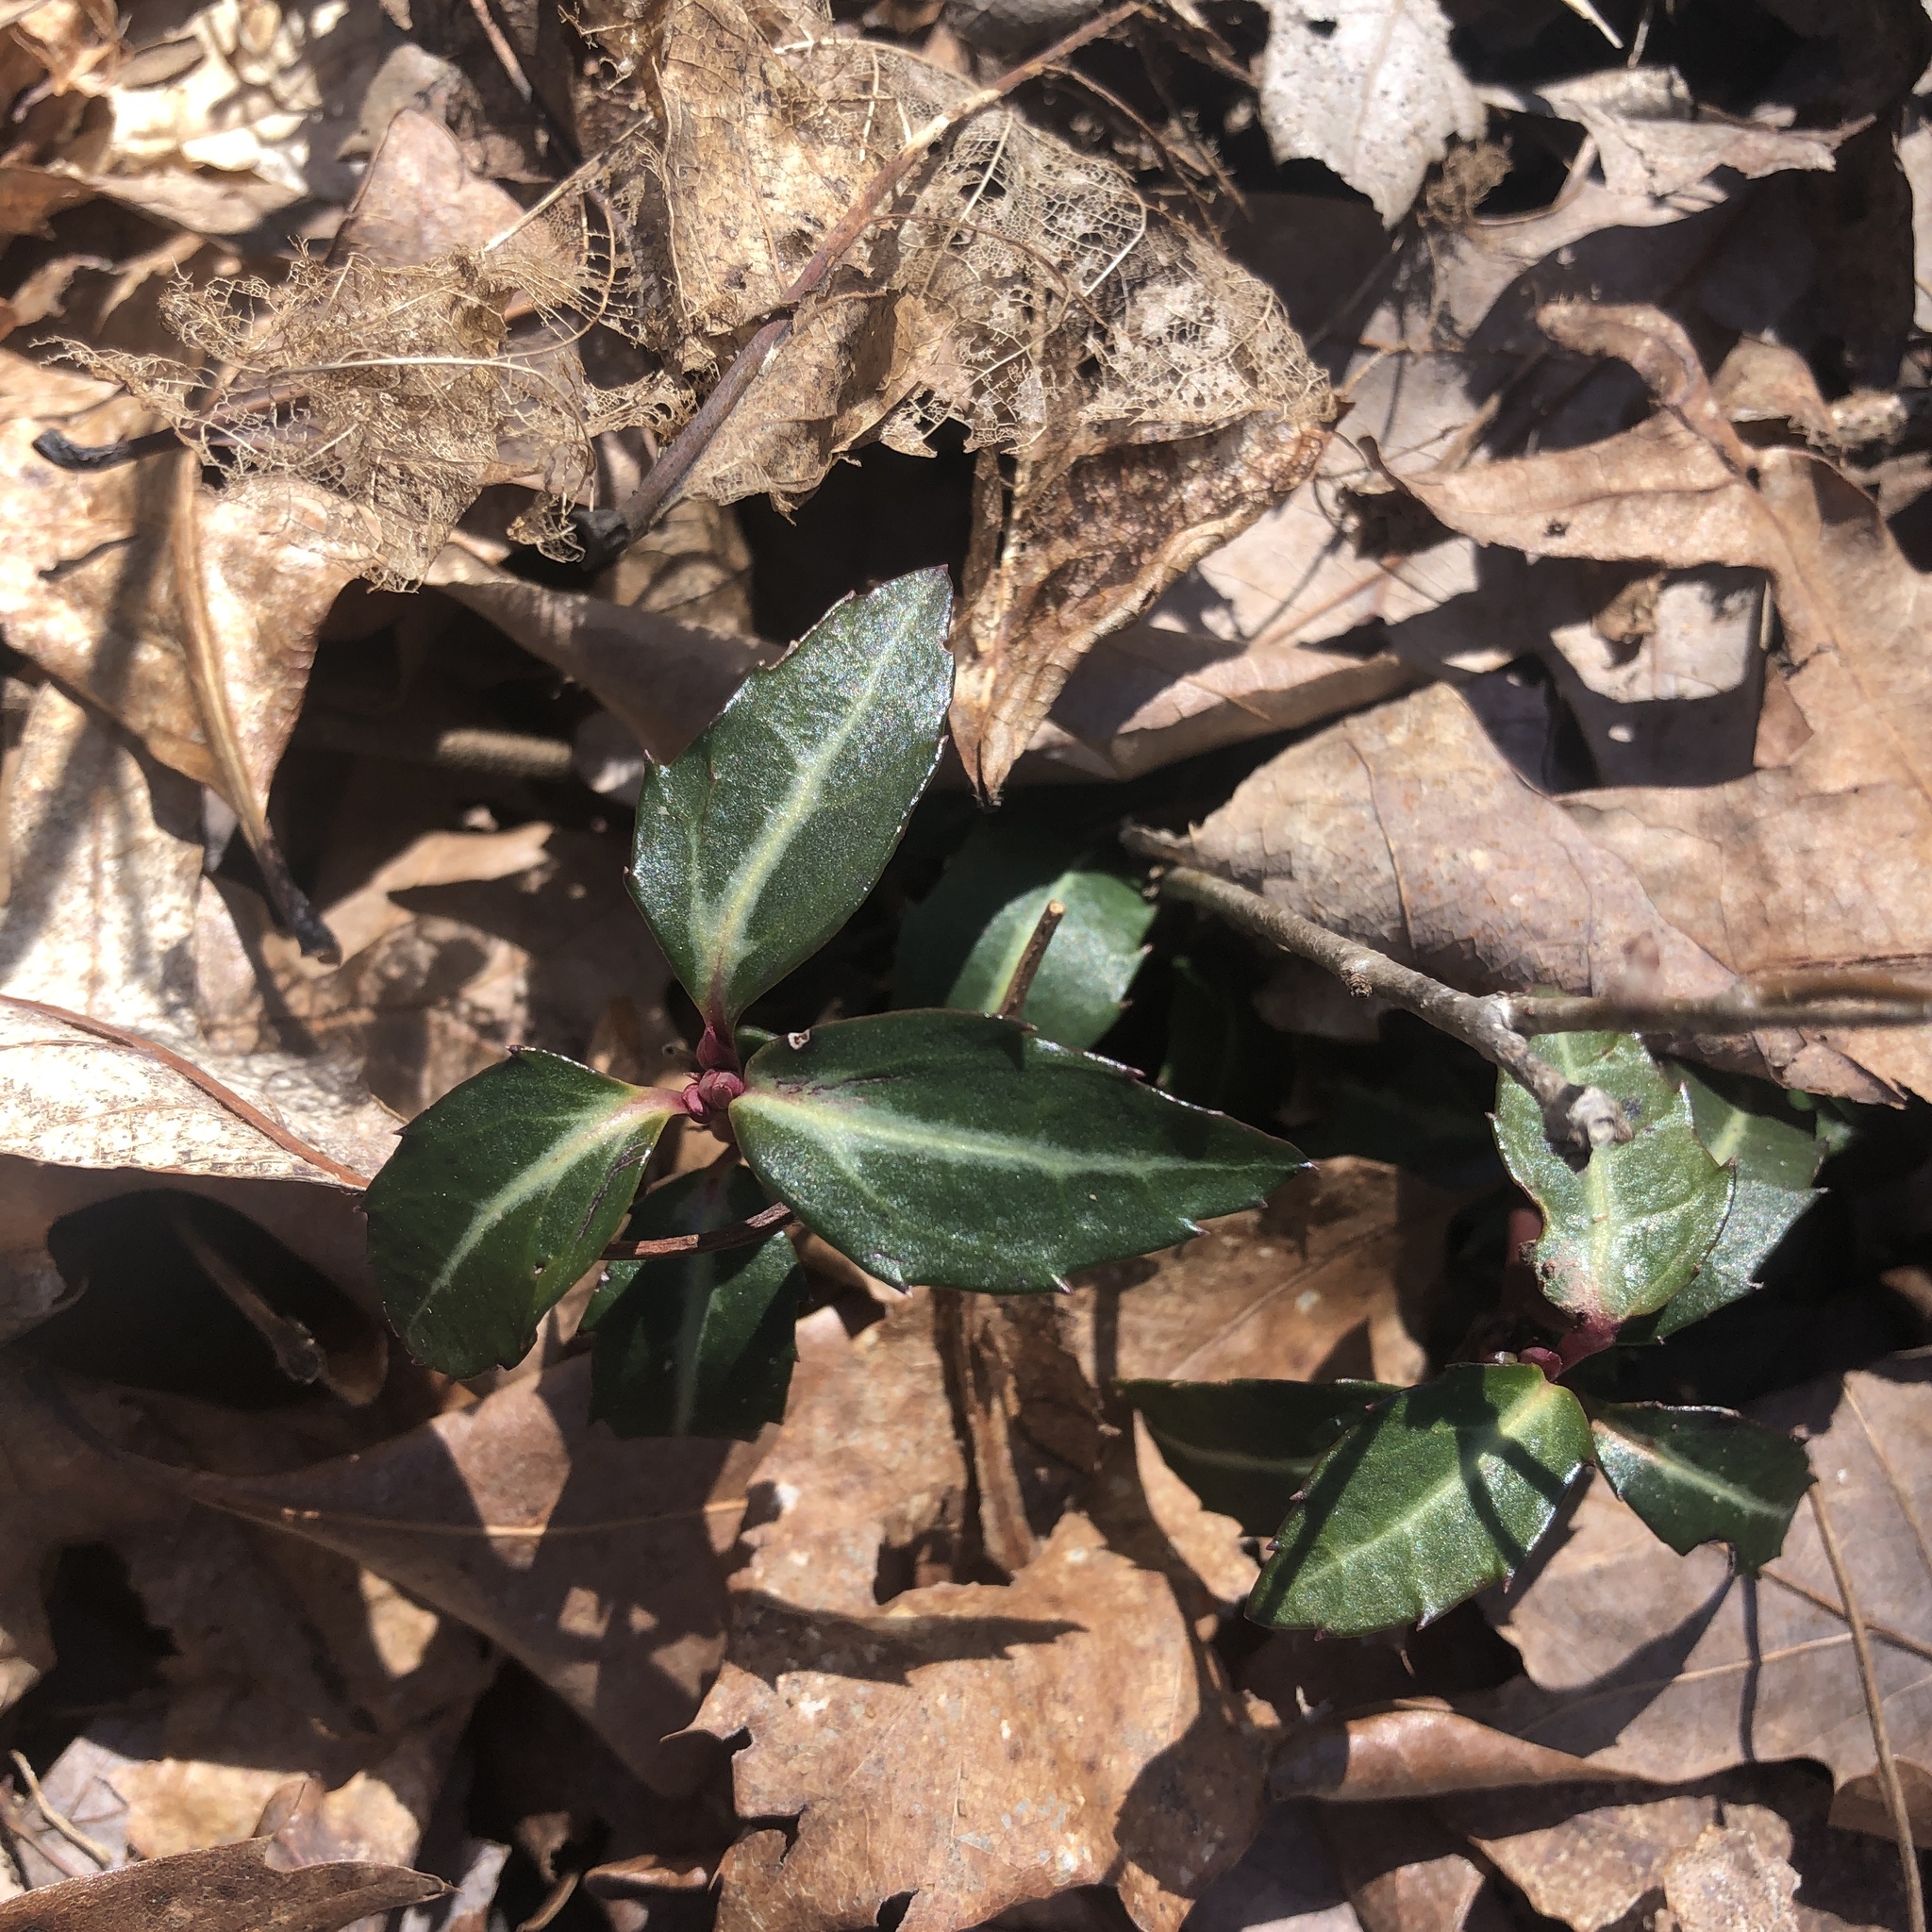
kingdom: Plantae
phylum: Tracheophyta
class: Magnoliopsida
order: Ericales
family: Ericaceae
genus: Chimaphila
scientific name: Chimaphila maculata
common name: Spotted pipsissewa
